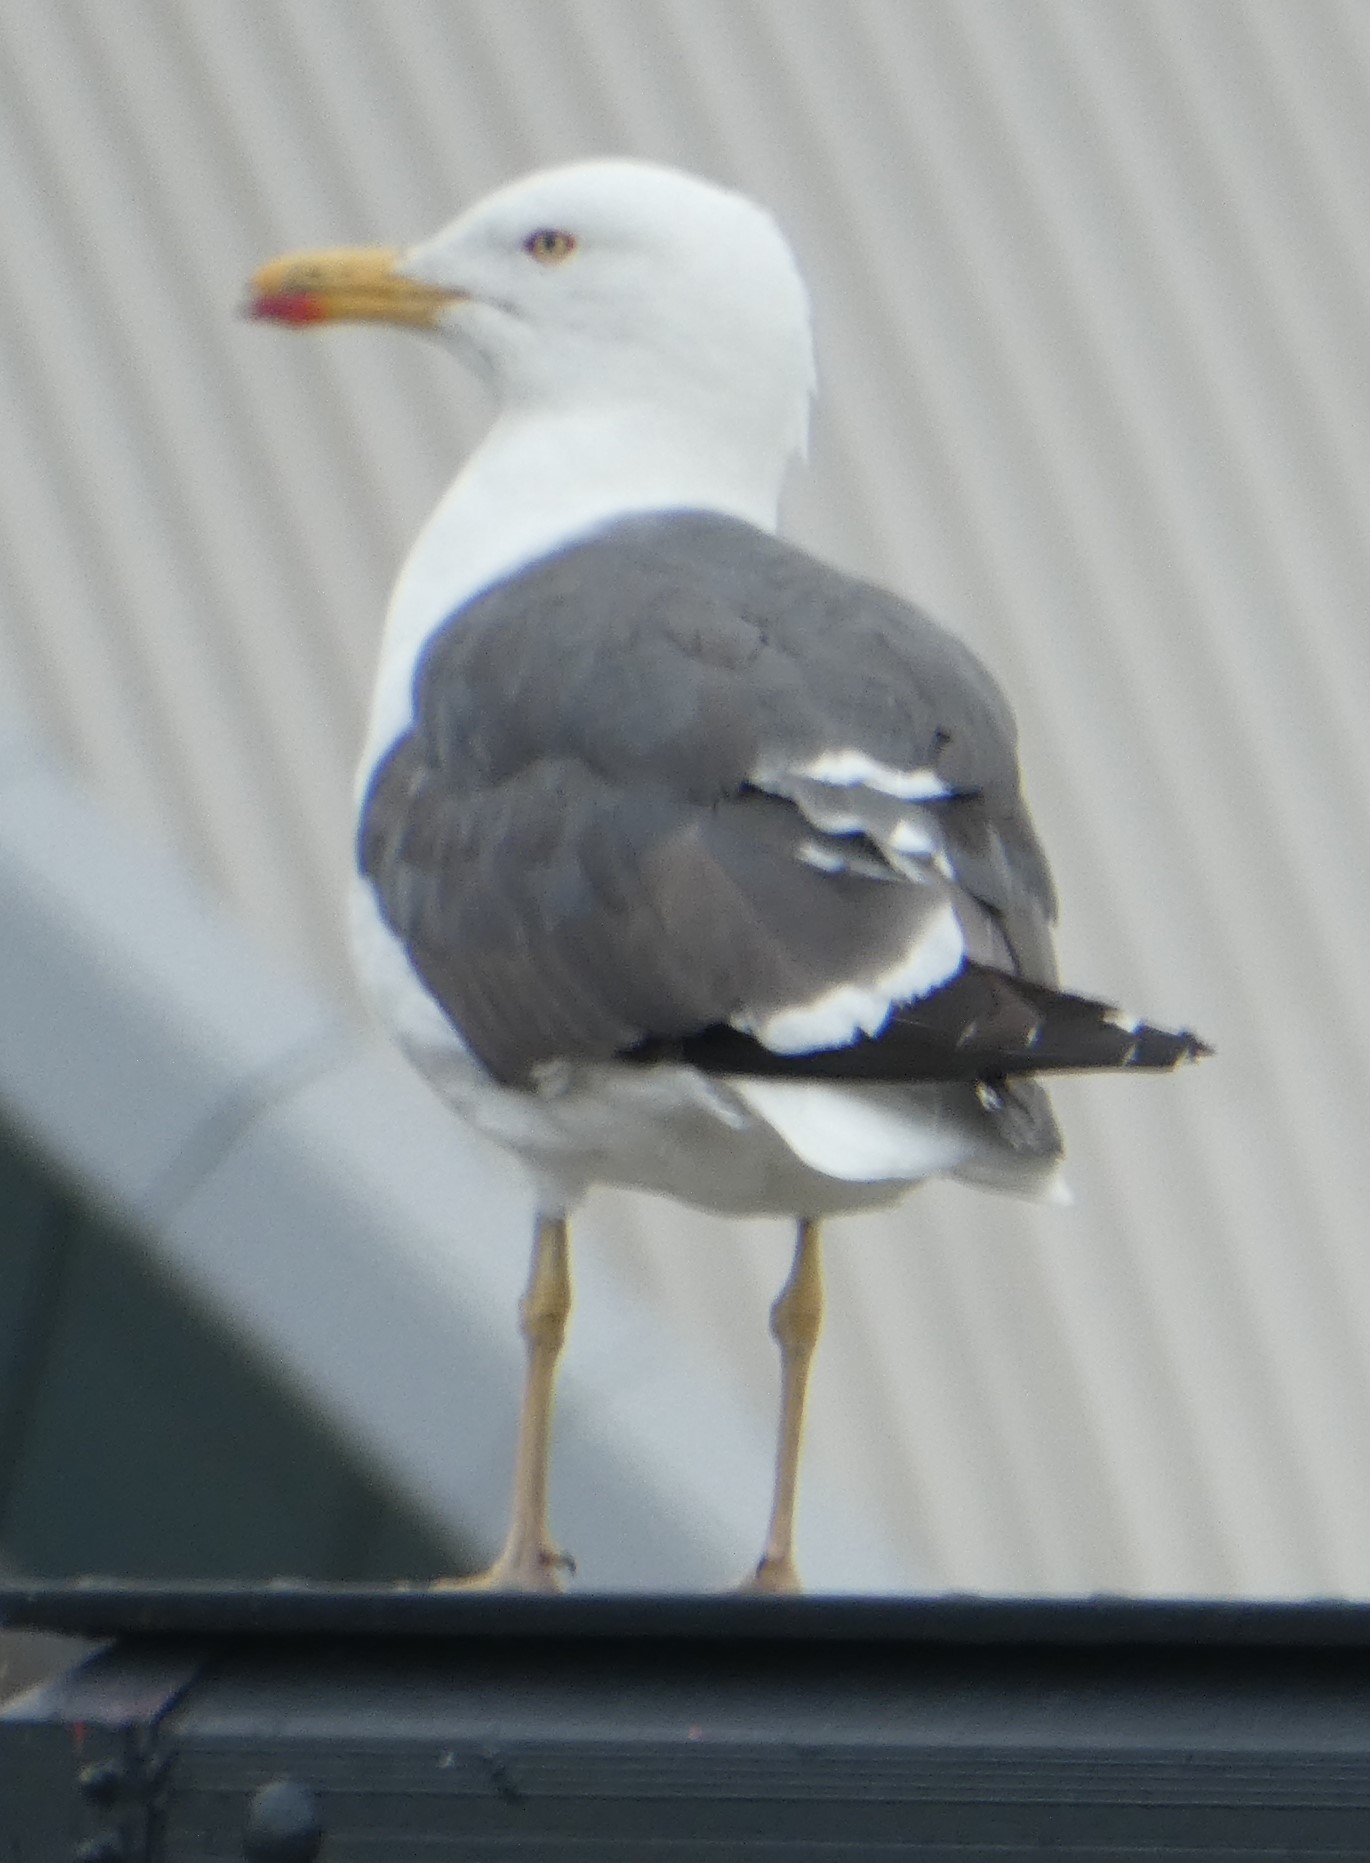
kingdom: Animalia
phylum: Chordata
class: Aves
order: Charadriiformes
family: Laridae
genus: Larus
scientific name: Larus fuscus
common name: Lesser black-backed gull
